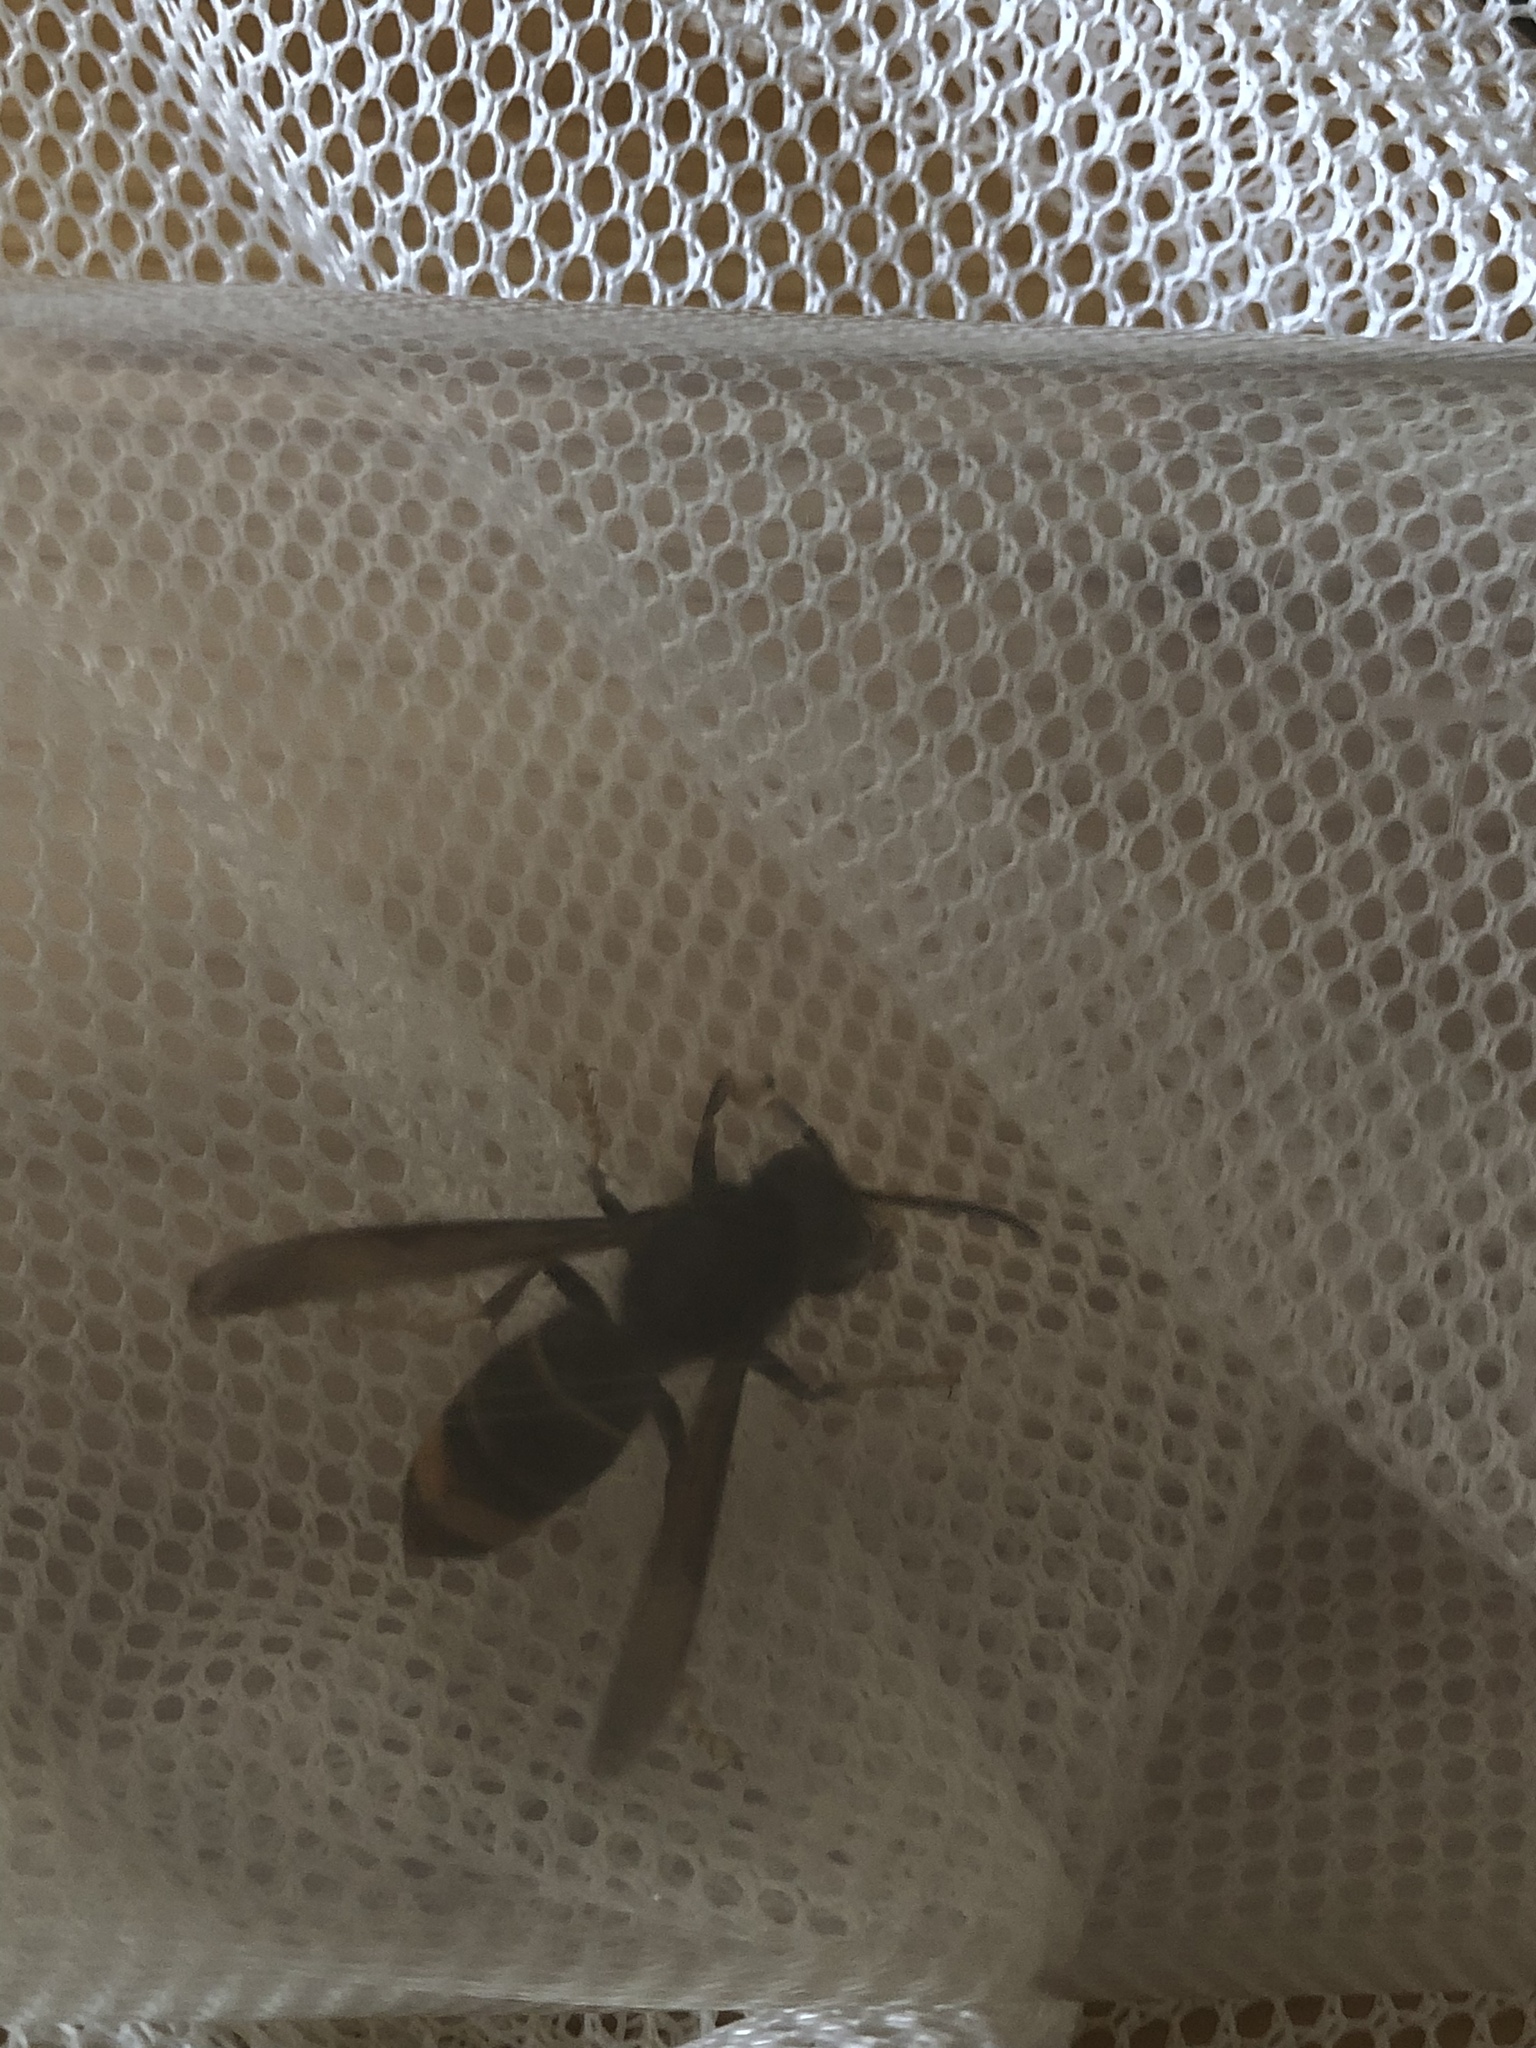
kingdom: Animalia
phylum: Arthropoda
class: Insecta
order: Hymenoptera
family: Vespidae
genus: Vespa
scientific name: Vespa velutina
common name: Asian hornet
